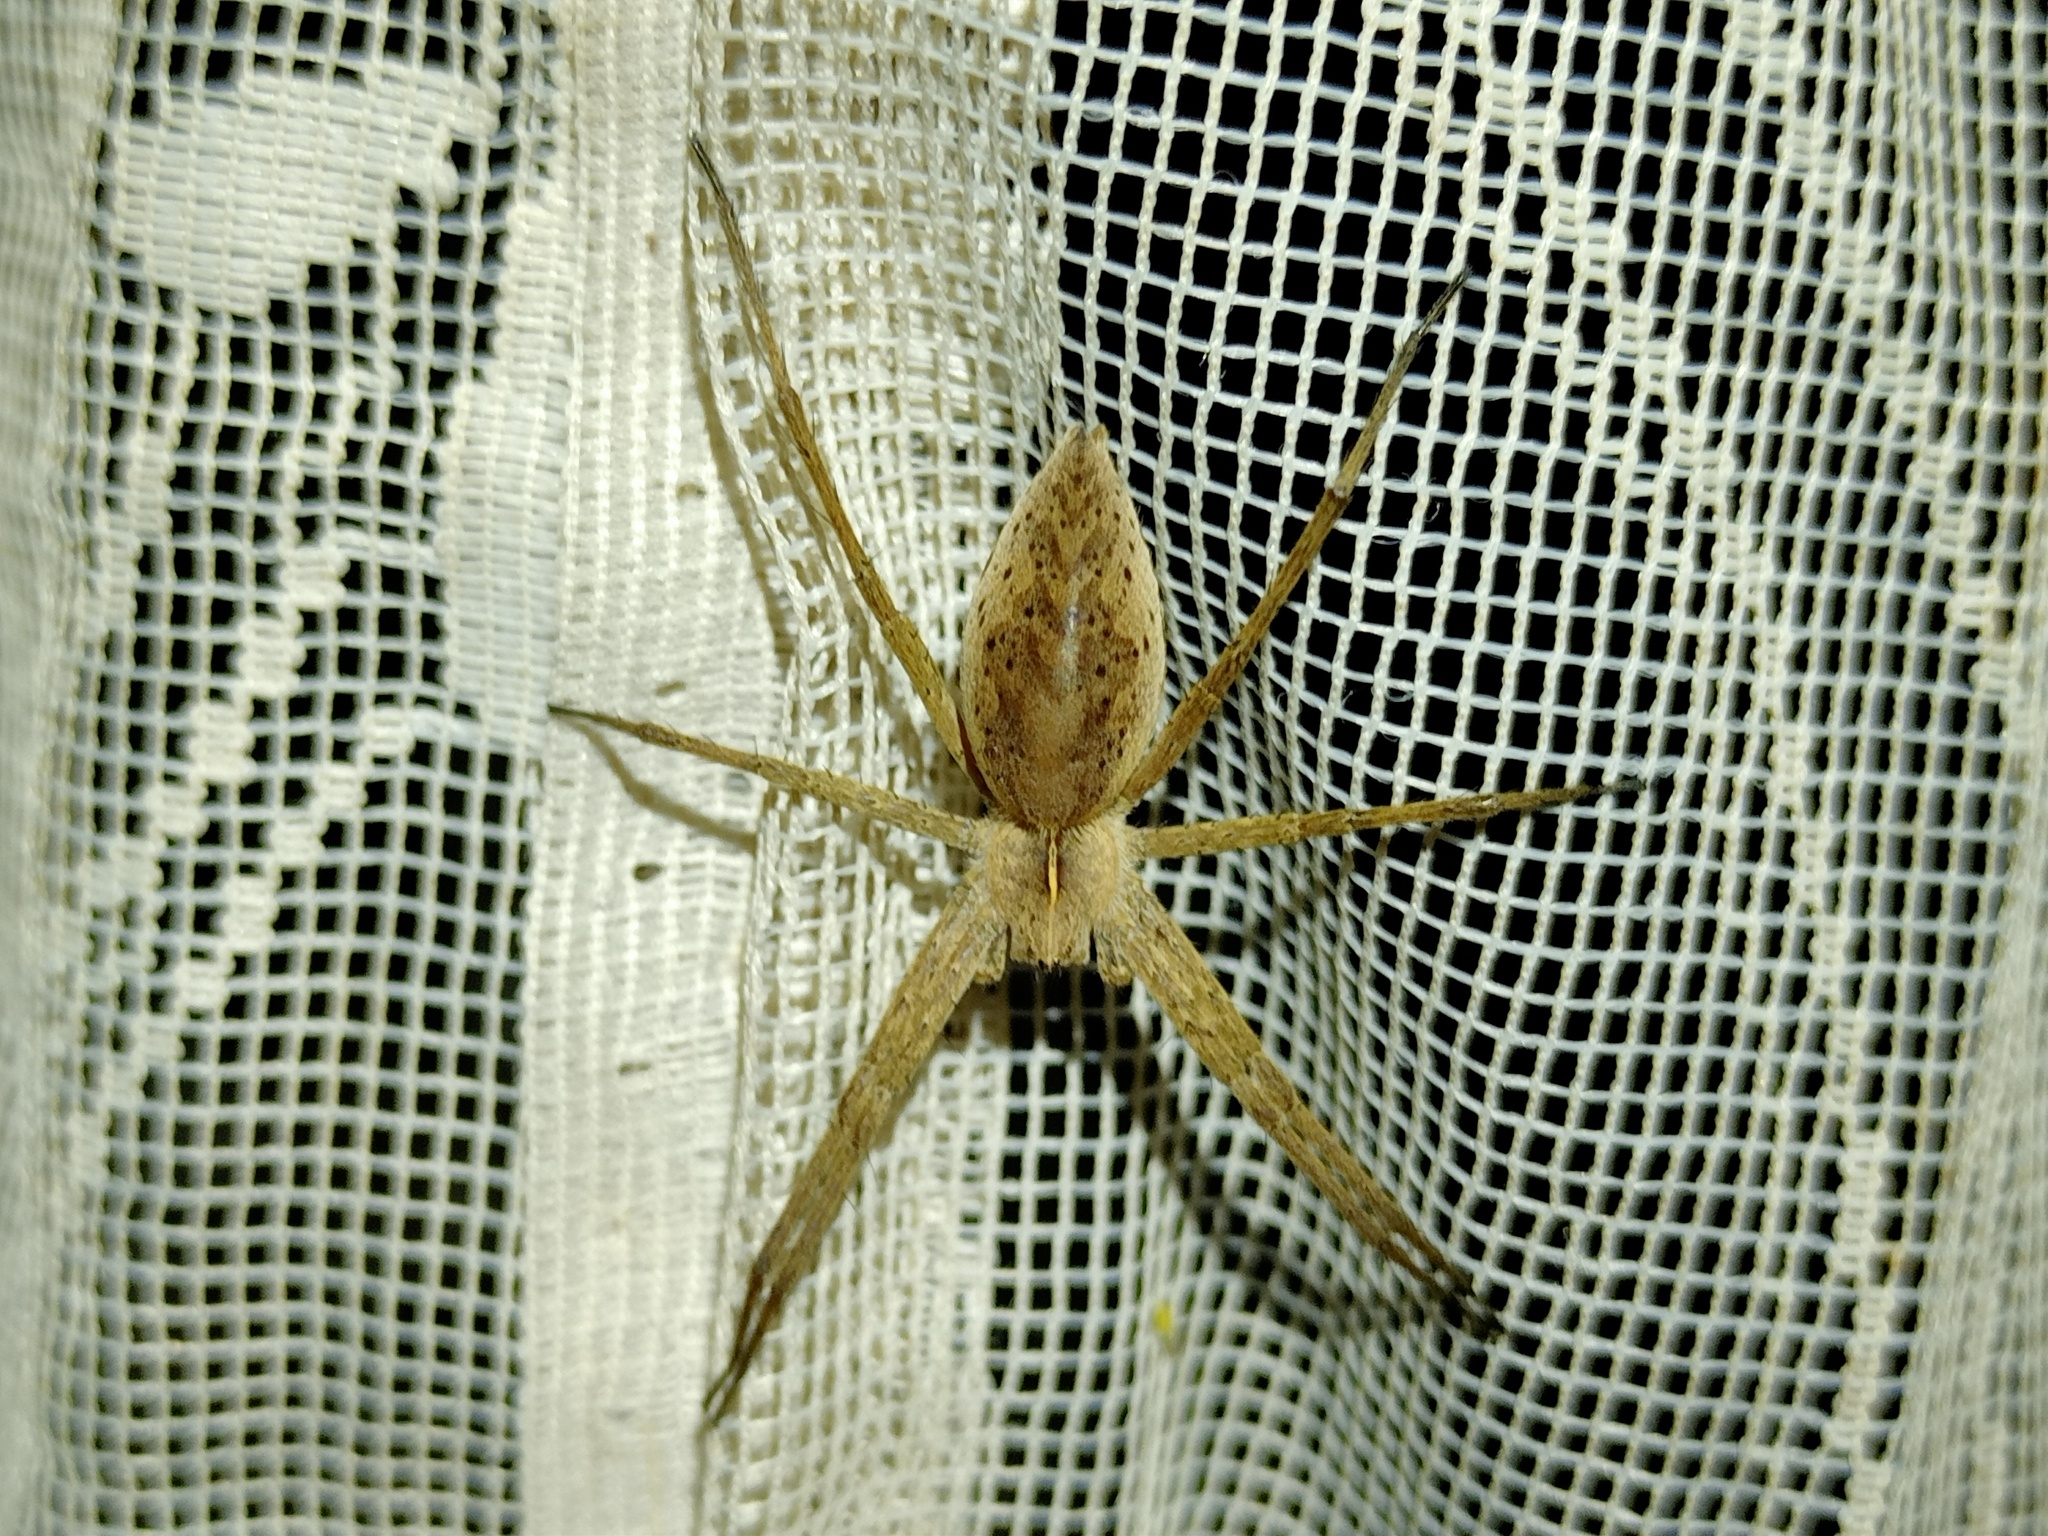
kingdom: Animalia
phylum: Arthropoda
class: Arachnida
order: Araneae
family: Pisauridae
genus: Pisaura
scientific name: Pisaura mirabilis
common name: Tent spider
